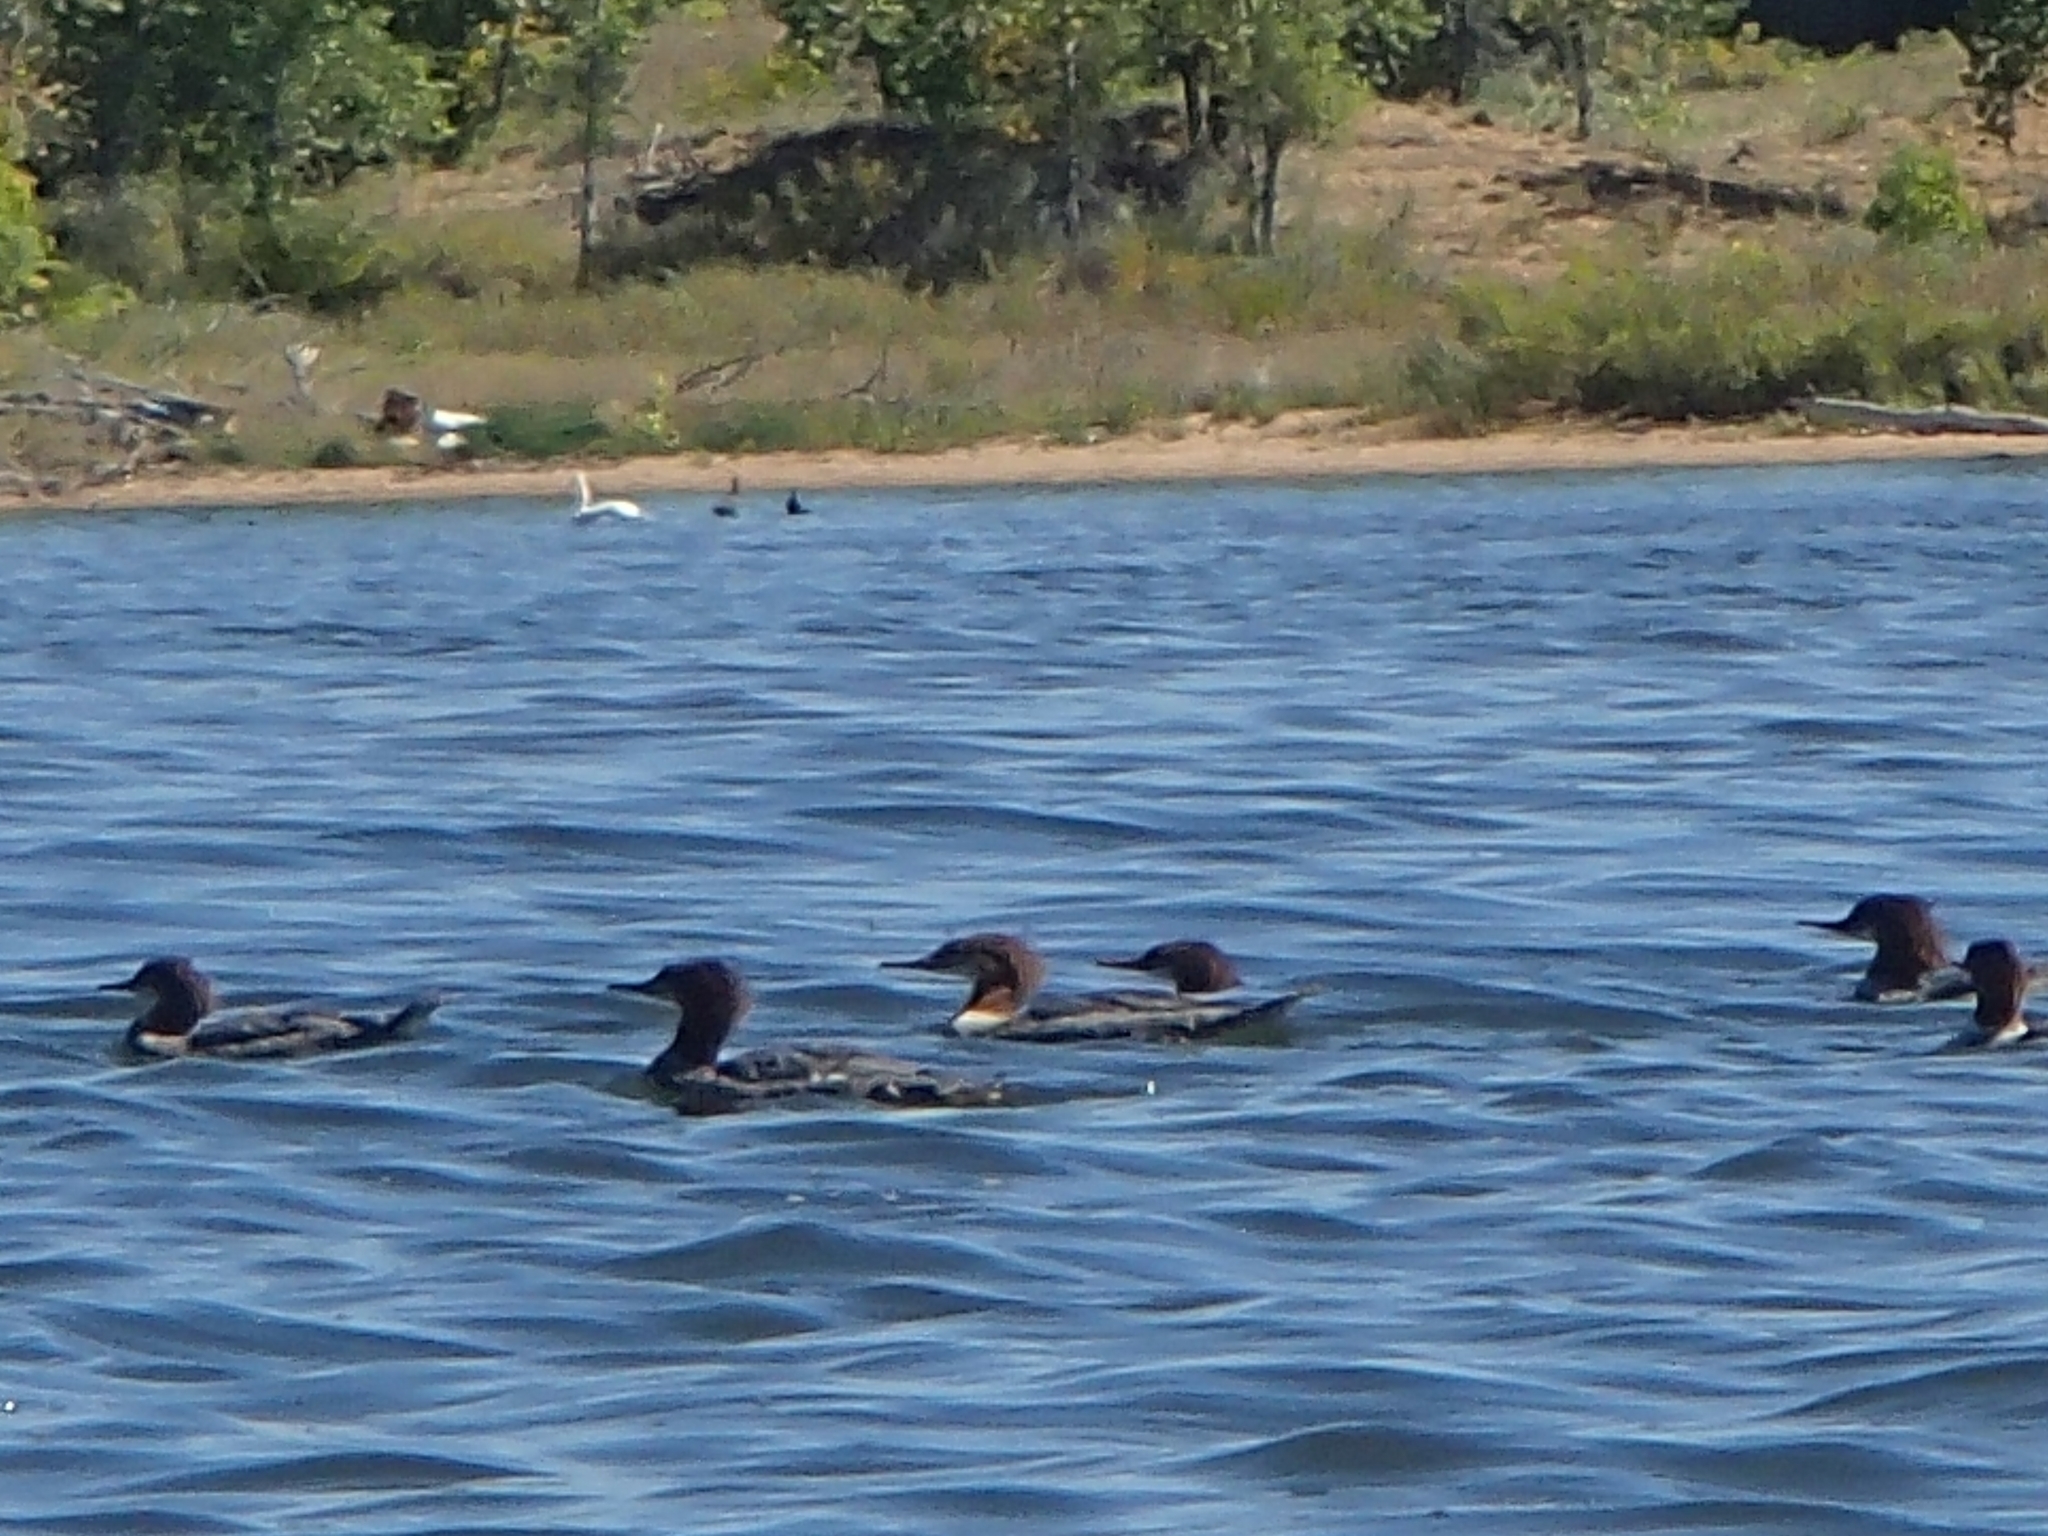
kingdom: Animalia
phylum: Chordata
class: Aves
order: Anseriformes
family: Anatidae
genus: Mergus
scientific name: Mergus merganser
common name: Common merganser
